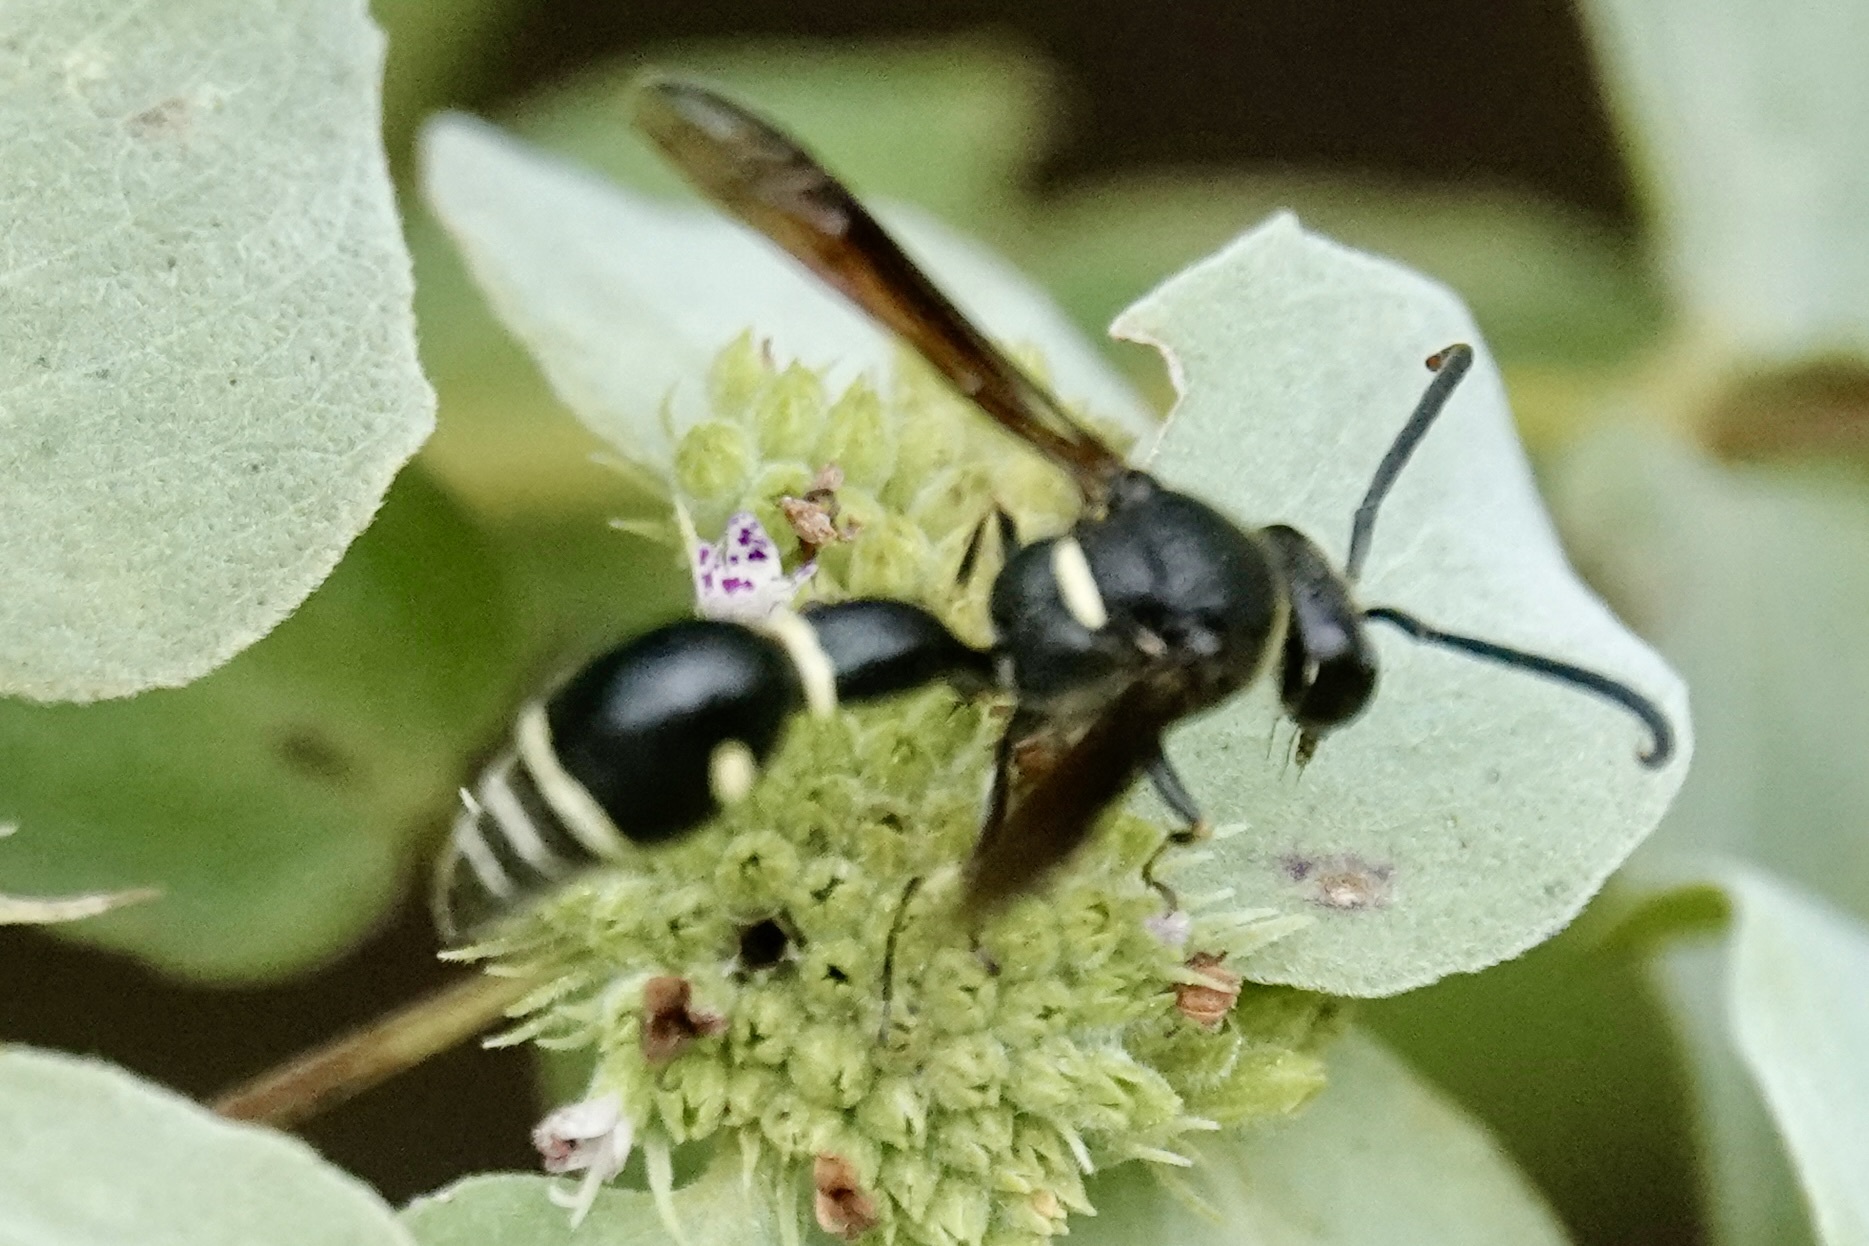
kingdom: Animalia
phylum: Arthropoda
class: Insecta
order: Hymenoptera
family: Vespidae
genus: Eumenes
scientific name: Eumenes fraternus
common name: Fraternal potter wasp
